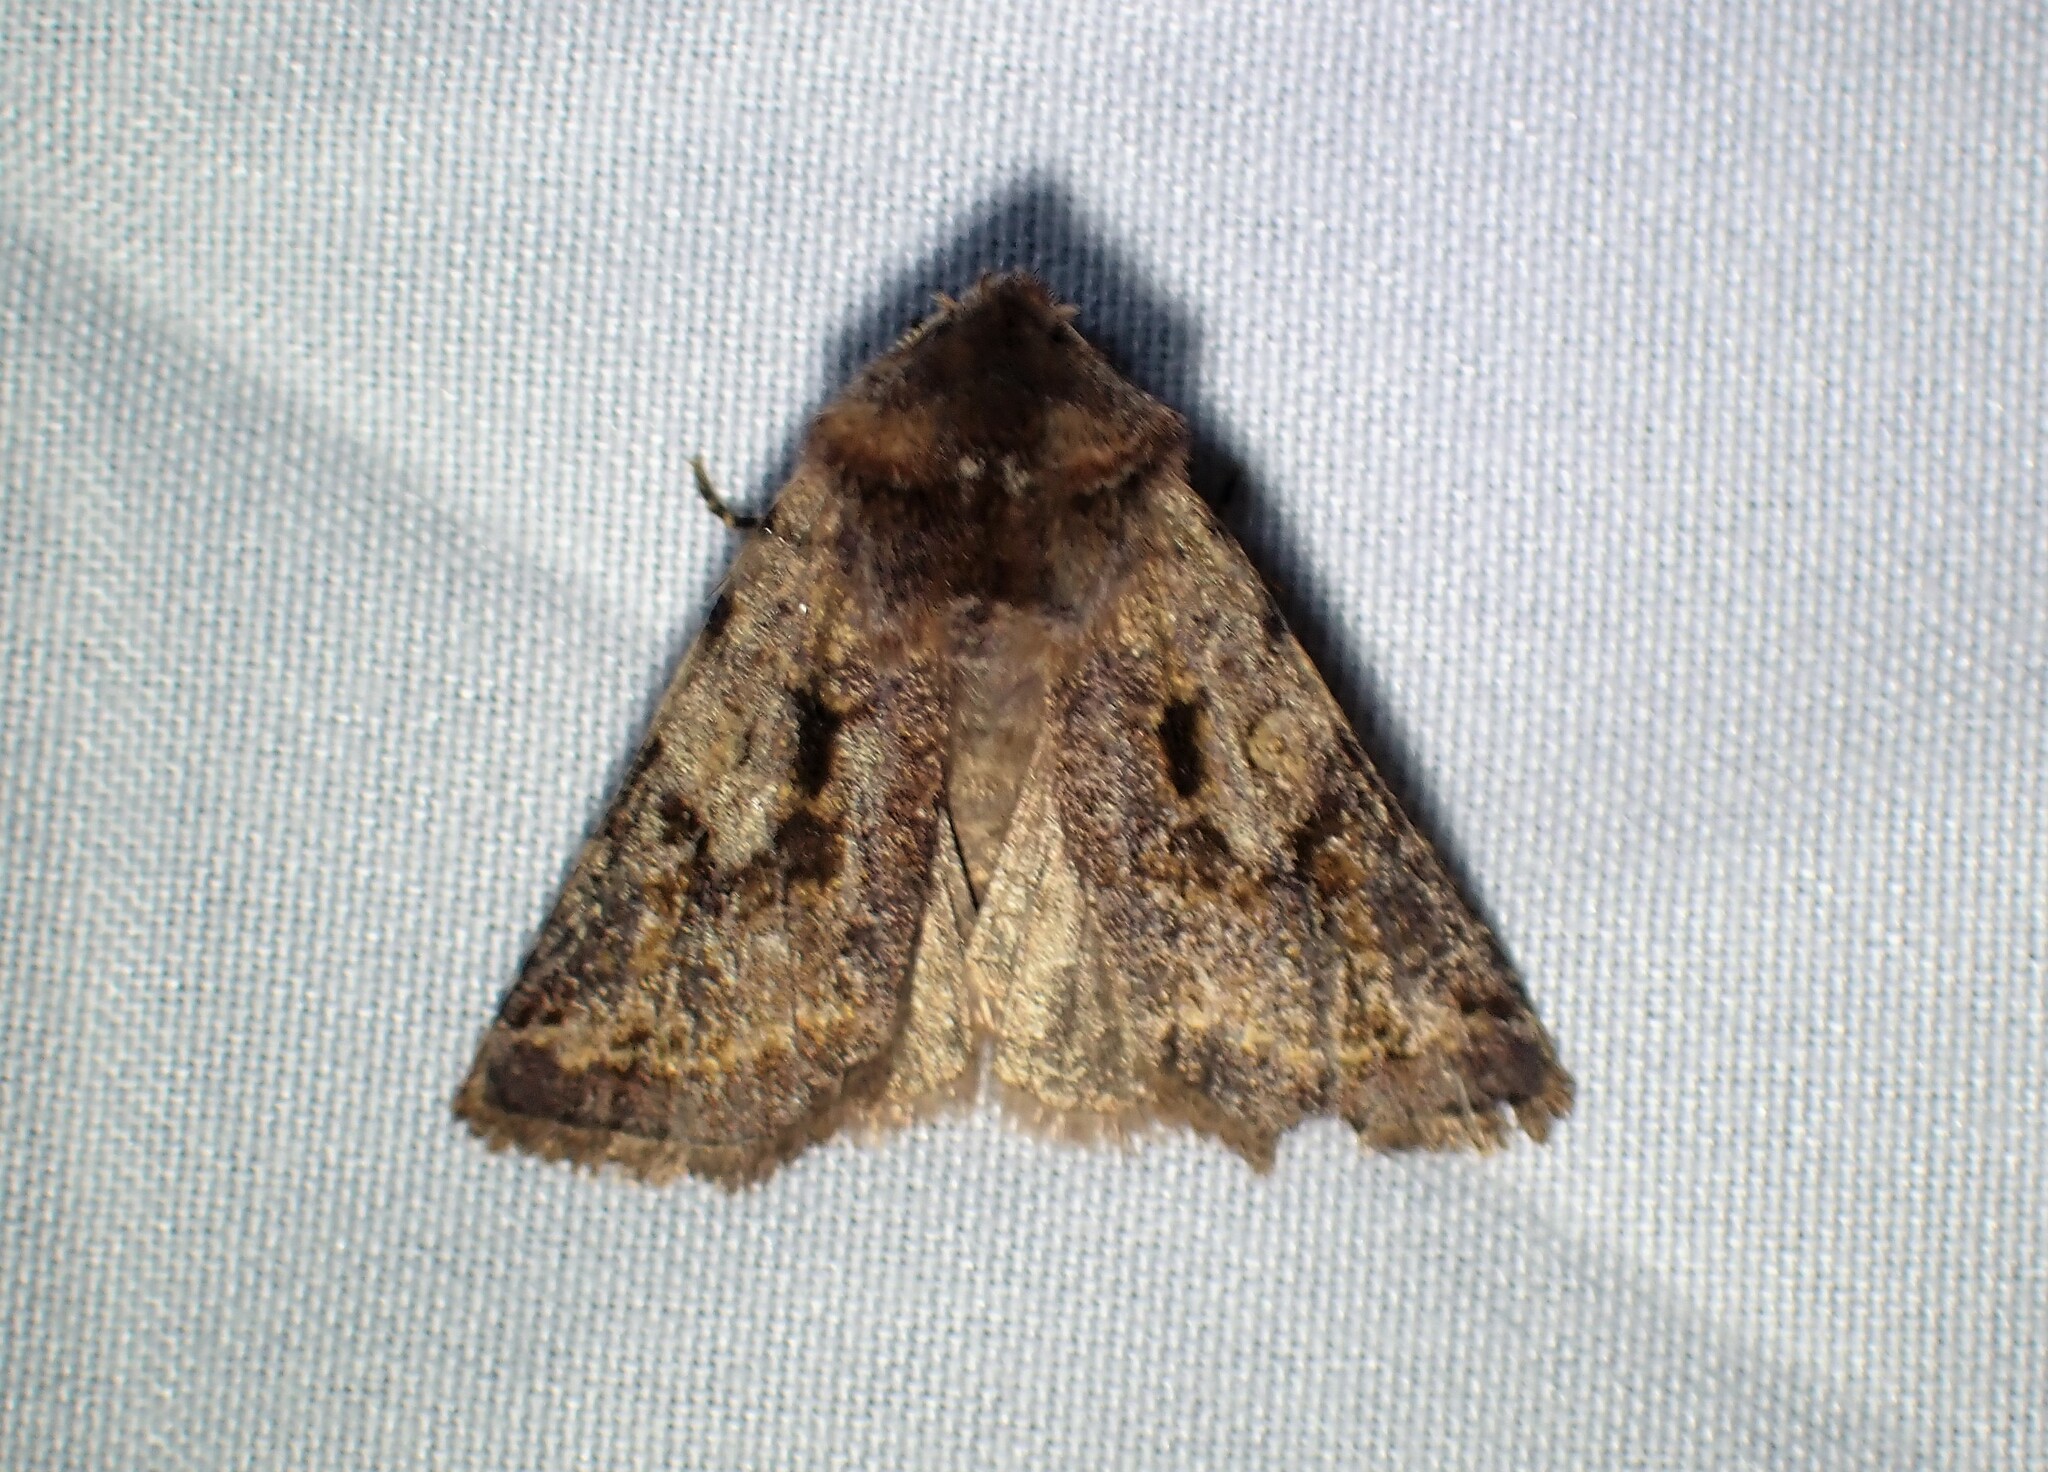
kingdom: Animalia
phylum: Arthropoda
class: Insecta
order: Lepidoptera
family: Noctuidae
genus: Cerastis
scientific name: Cerastis salicarum
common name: Willow dart
